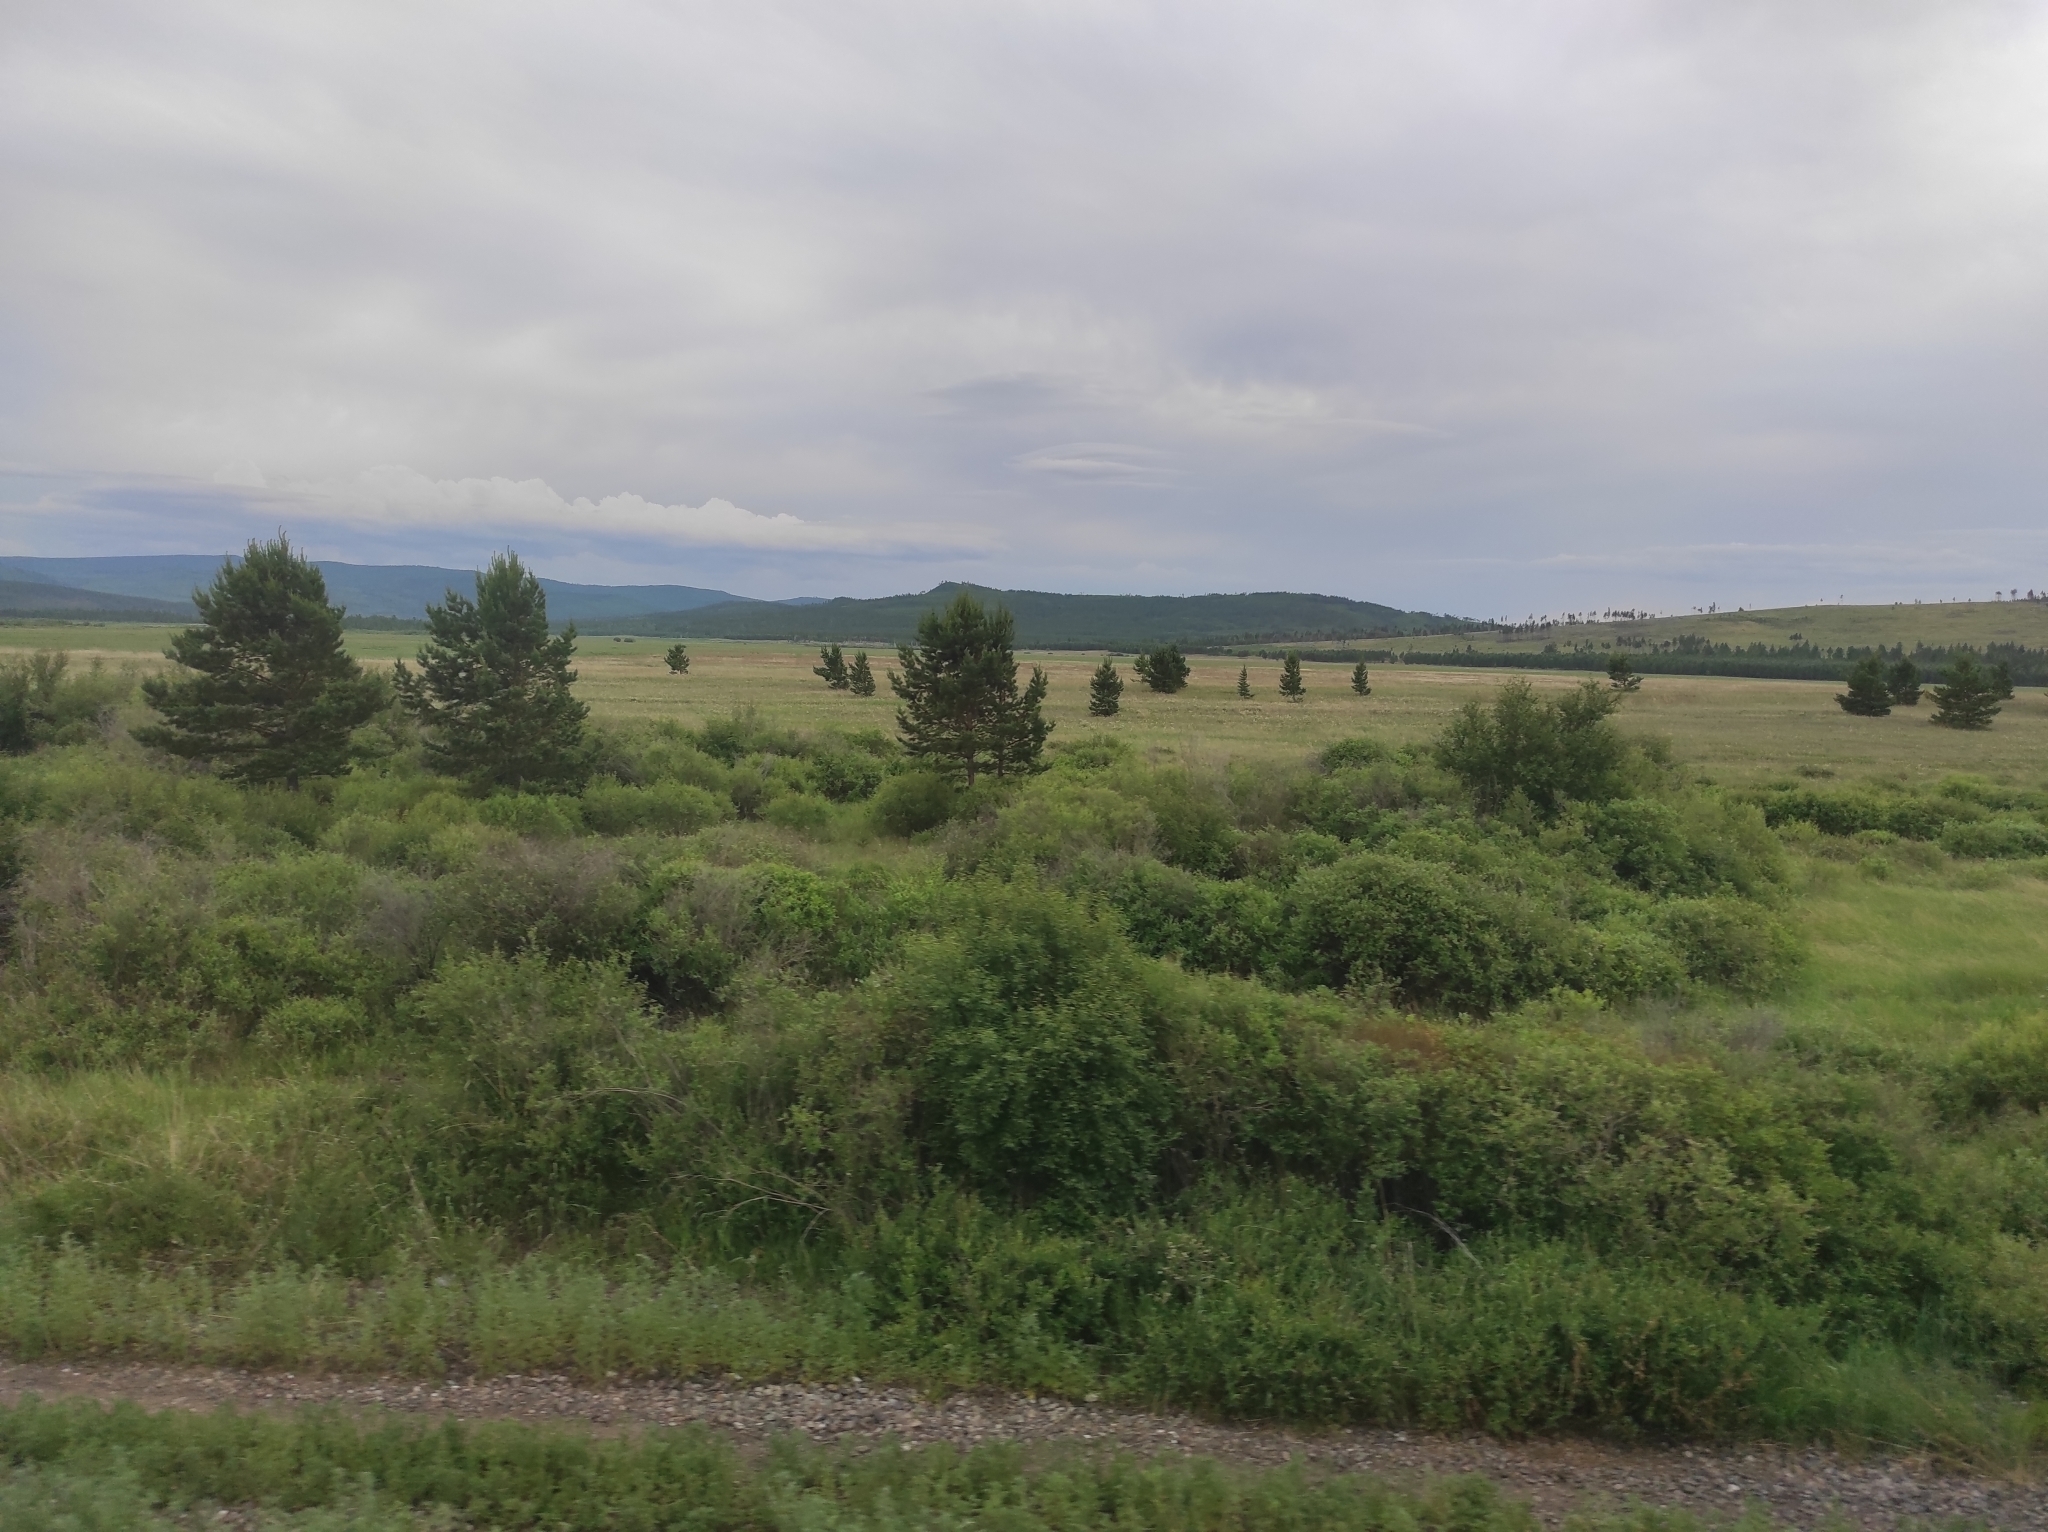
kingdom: Plantae
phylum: Tracheophyta
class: Pinopsida
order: Pinales
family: Pinaceae
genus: Pinus
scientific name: Pinus sylvestris
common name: Scots pine
